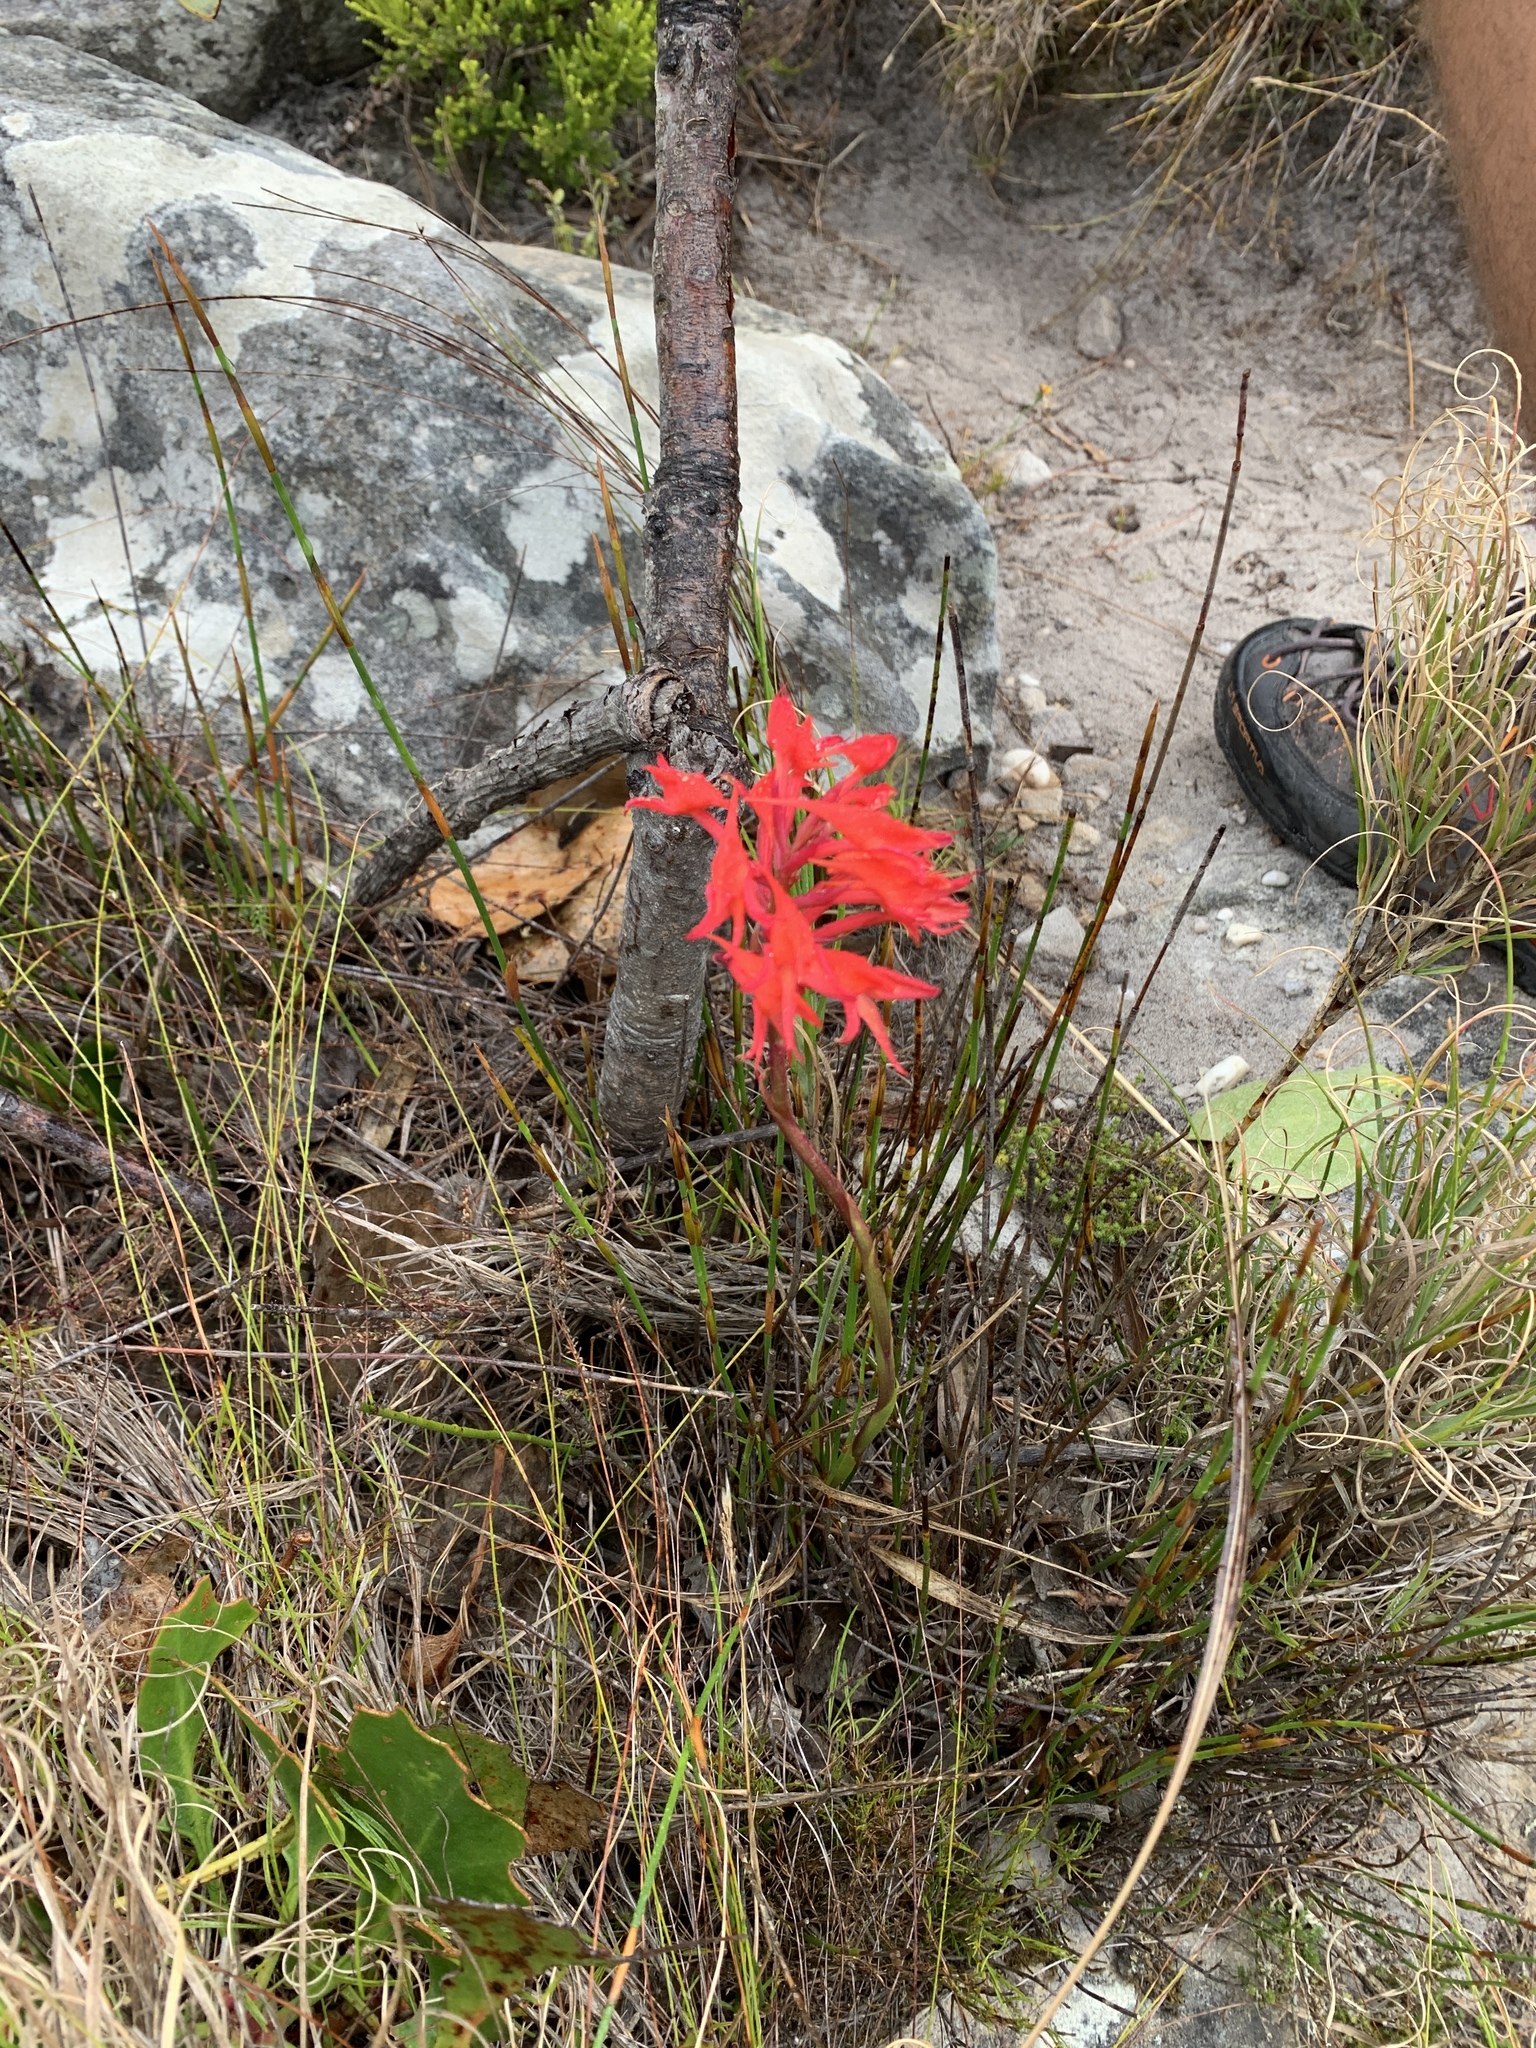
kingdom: Plantae
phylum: Tracheophyta
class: Liliopsida
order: Asparagales
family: Orchidaceae
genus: Disa
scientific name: Disa ferruginea
